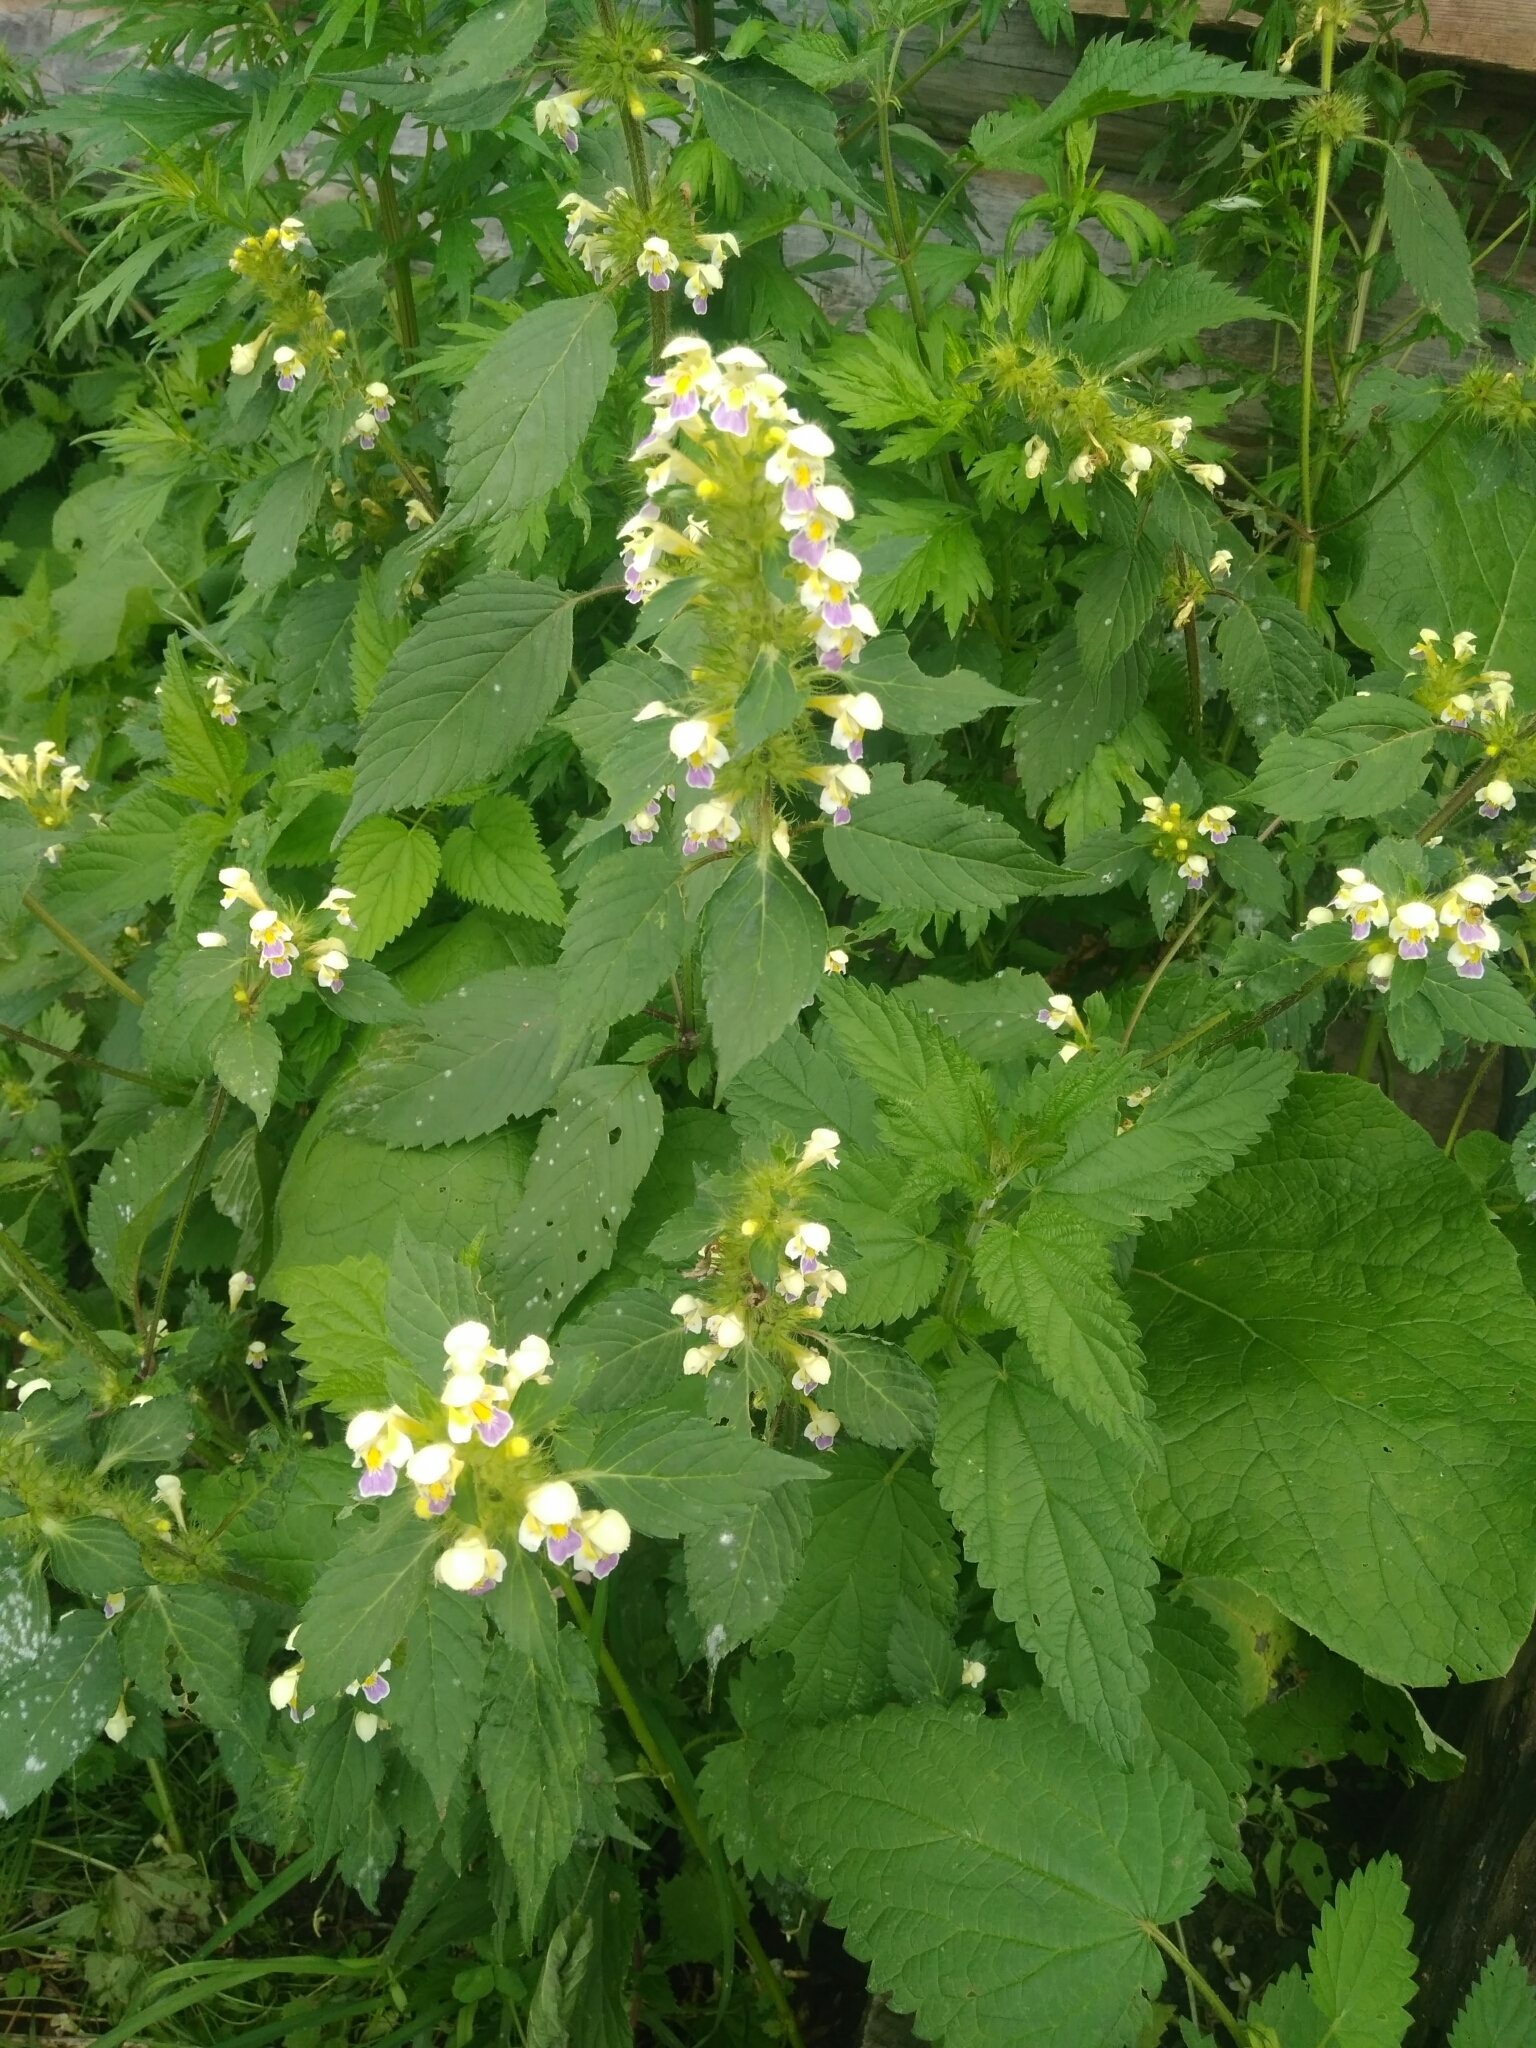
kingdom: Plantae
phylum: Tracheophyta
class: Magnoliopsida
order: Lamiales
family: Lamiaceae
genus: Galeopsis
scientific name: Galeopsis speciosa
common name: Large-flowered hemp-nettle
